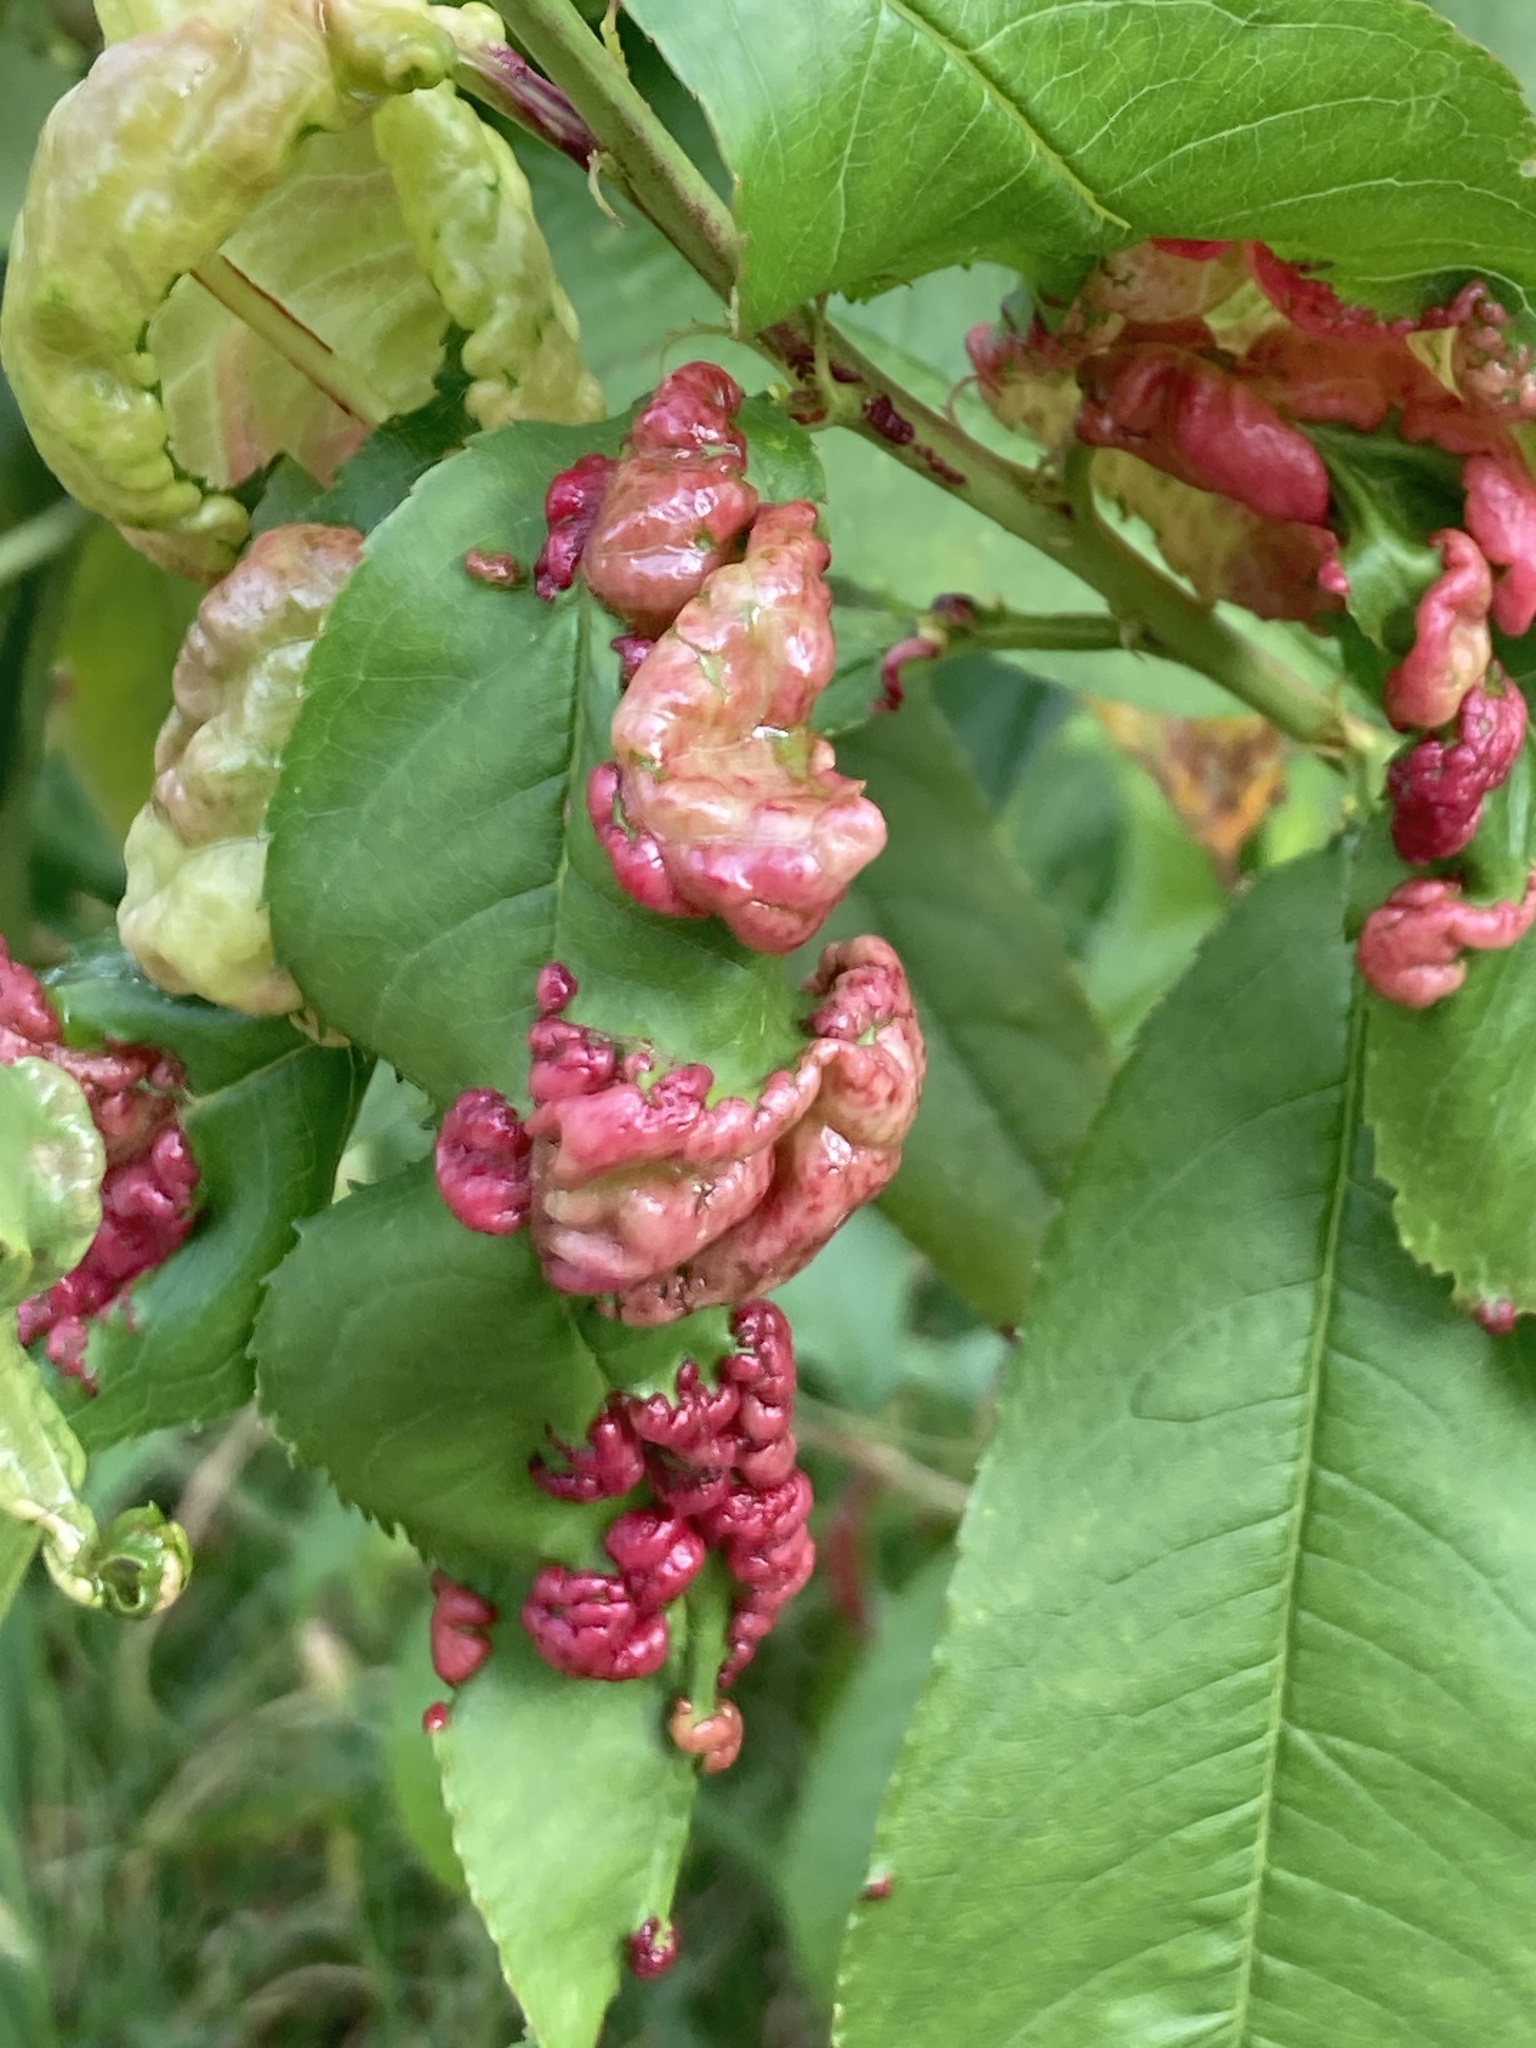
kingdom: Fungi
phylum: Ascomycota
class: Taphrinomycetes
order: Taphrinales
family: Taphrinaceae
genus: Taphrina
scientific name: Taphrina deformans
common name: Peach leaf curl
